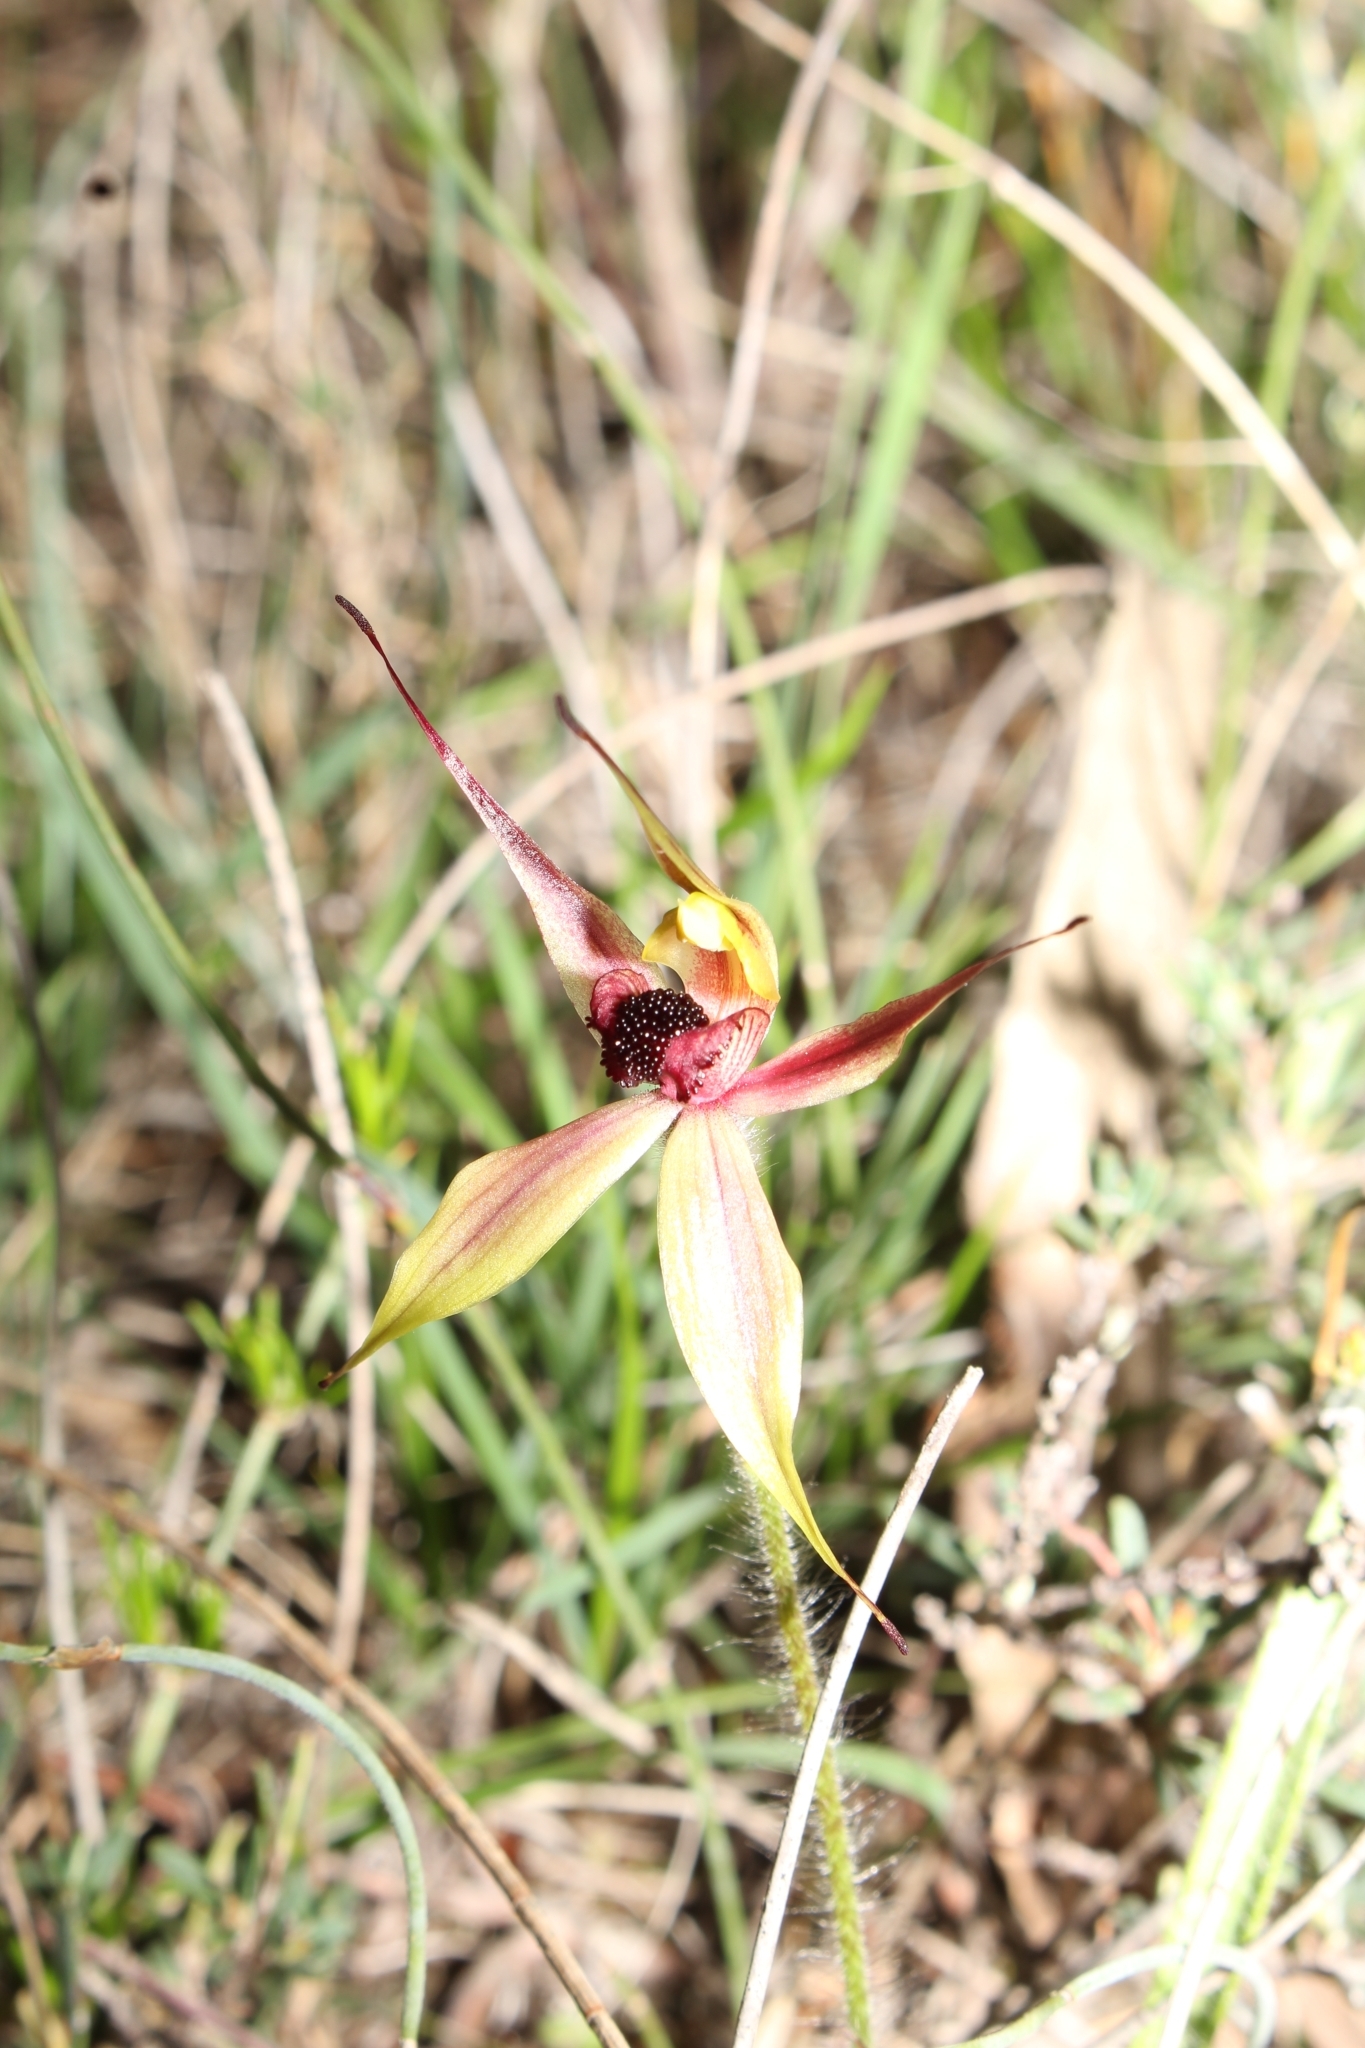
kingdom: Plantae
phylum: Tracheophyta
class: Liliopsida
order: Asparagales
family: Orchidaceae
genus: Caladenia
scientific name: Caladenia macrostylis
